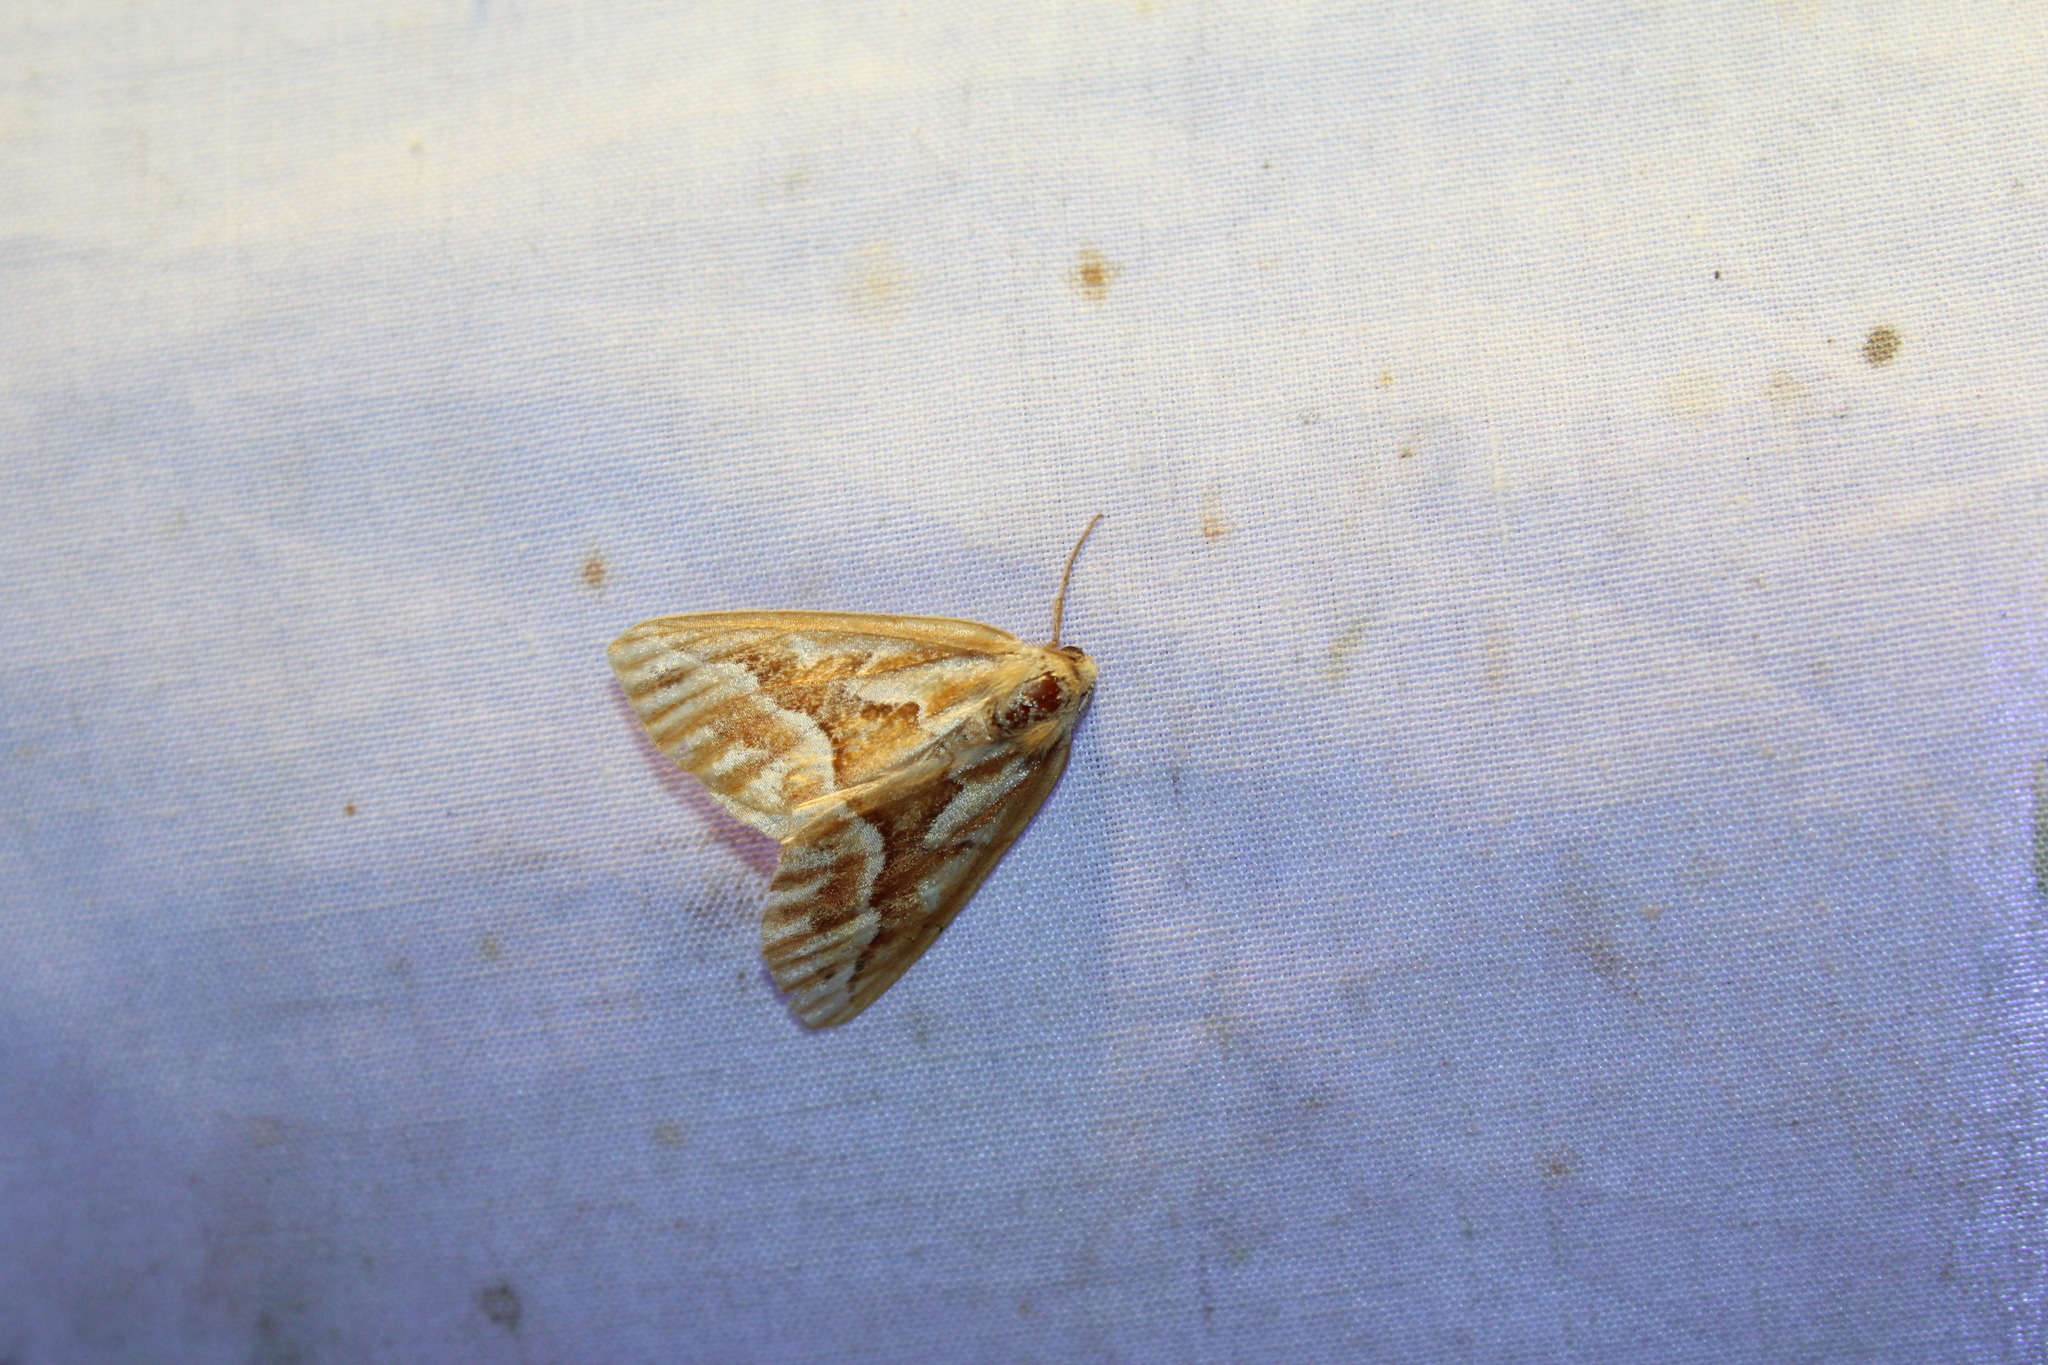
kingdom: Animalia
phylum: Arthropoda
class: Insecta
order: Lepidoptera
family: Geometridae
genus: Caripeta
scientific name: Caripeta piniata
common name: Northern pine looper moth
